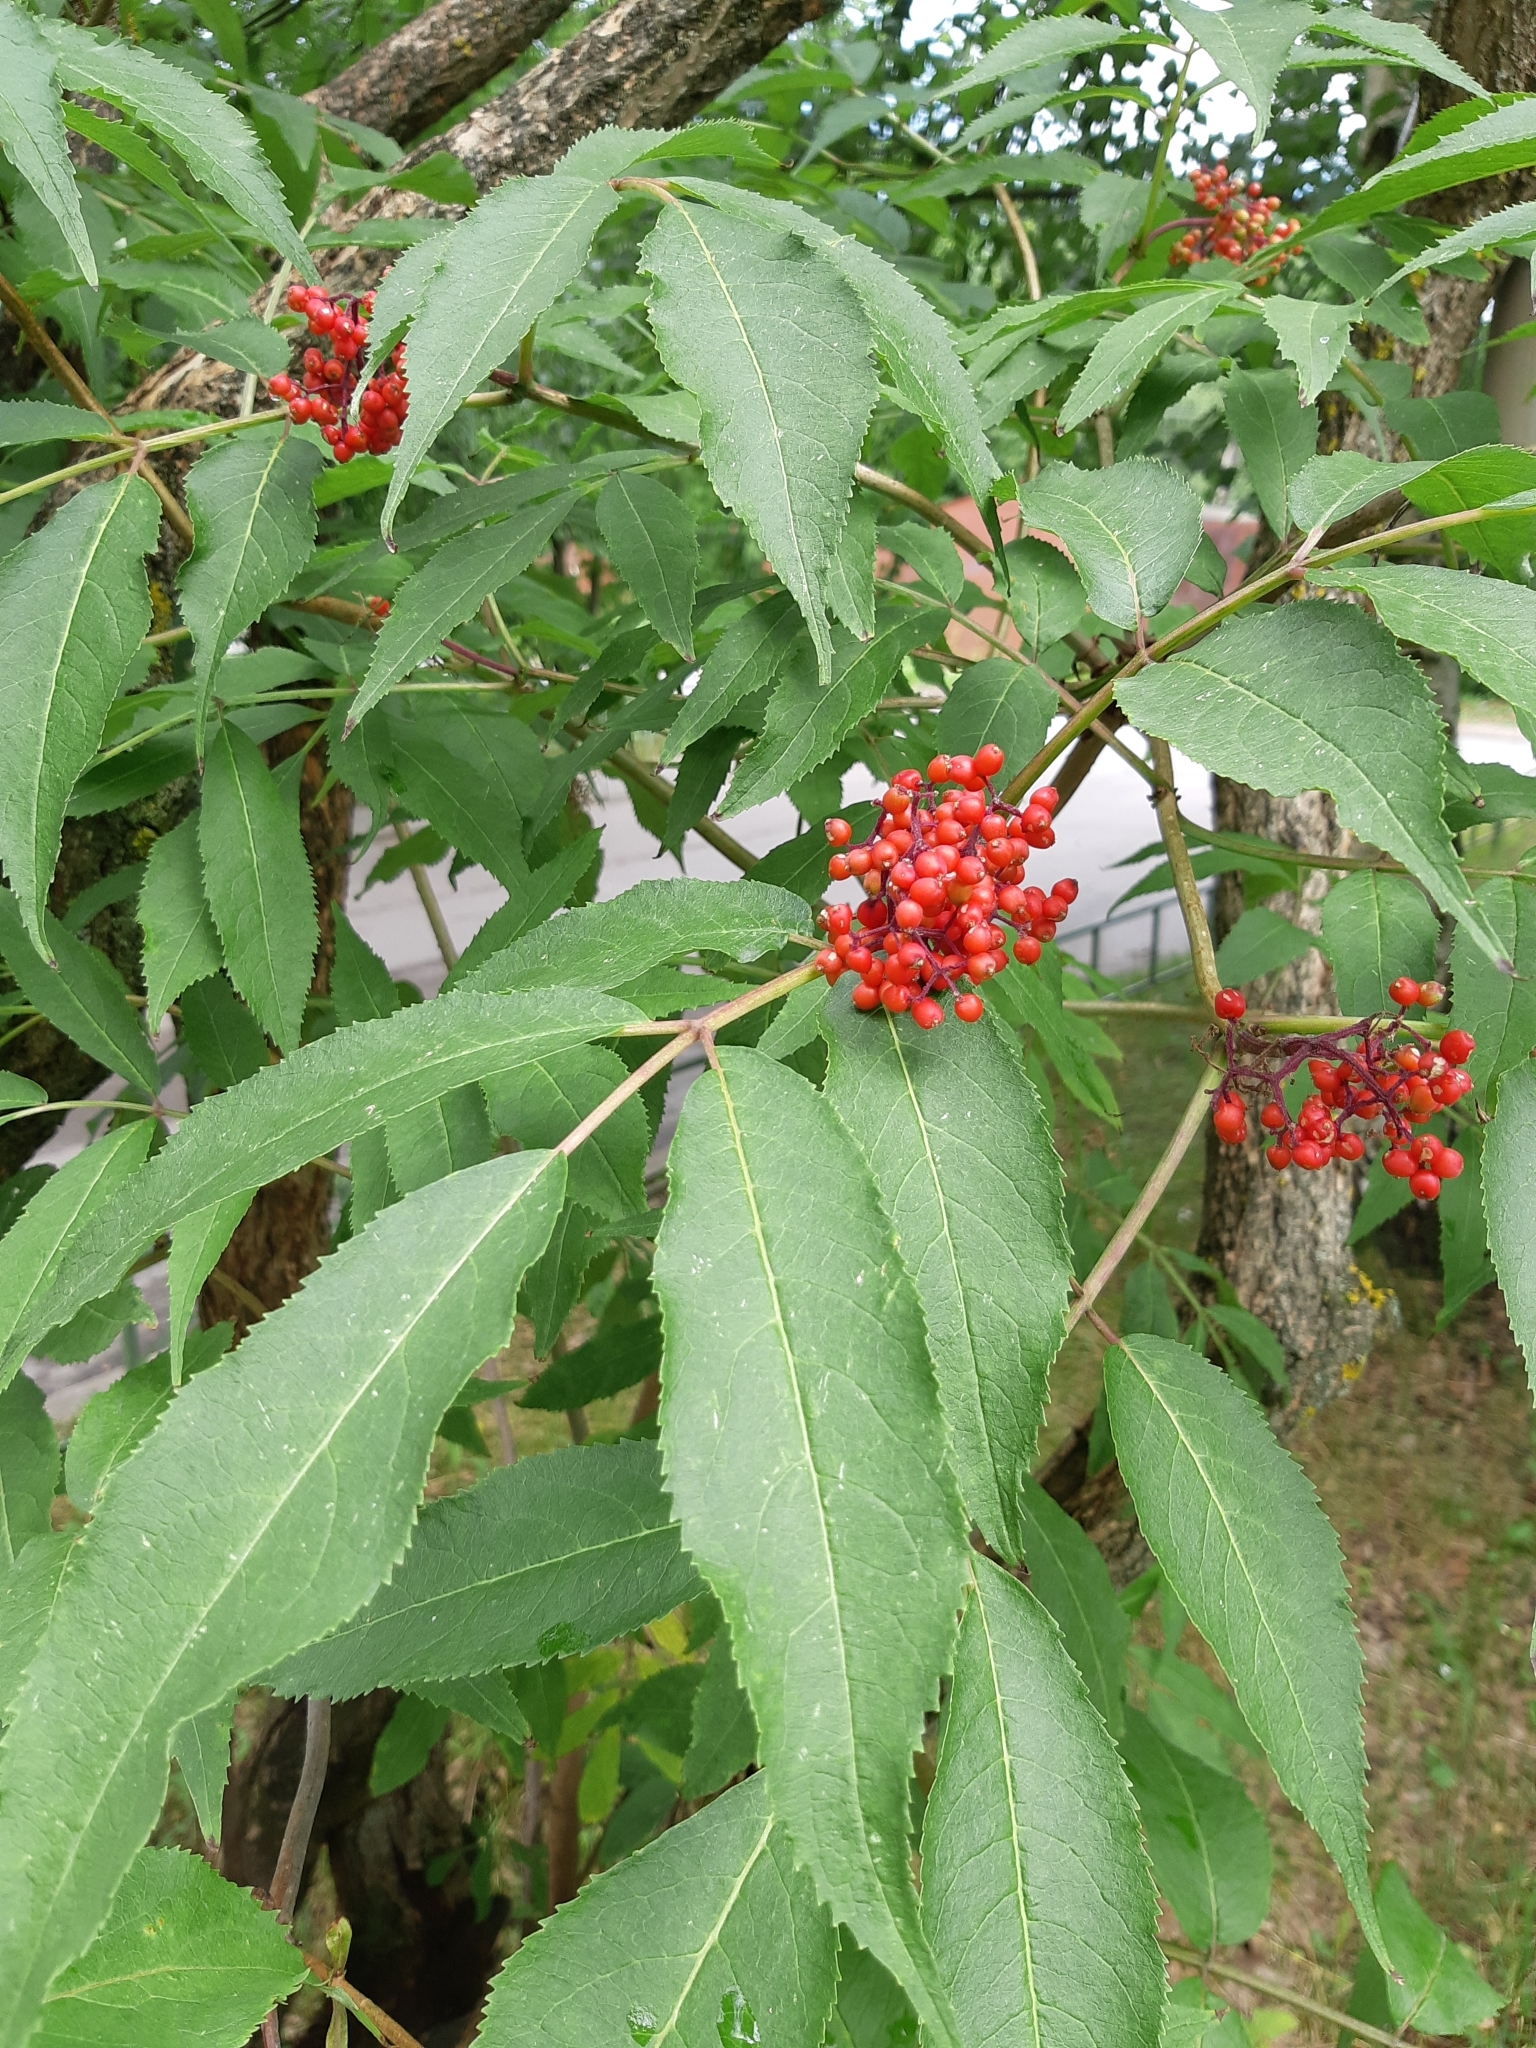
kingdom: Plantae
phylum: Tracheophyta
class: Magnoliopsida
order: Dipsacales
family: Viburnaceae
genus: Sambucus
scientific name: Sambucus racemosa
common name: Red-berried elder
